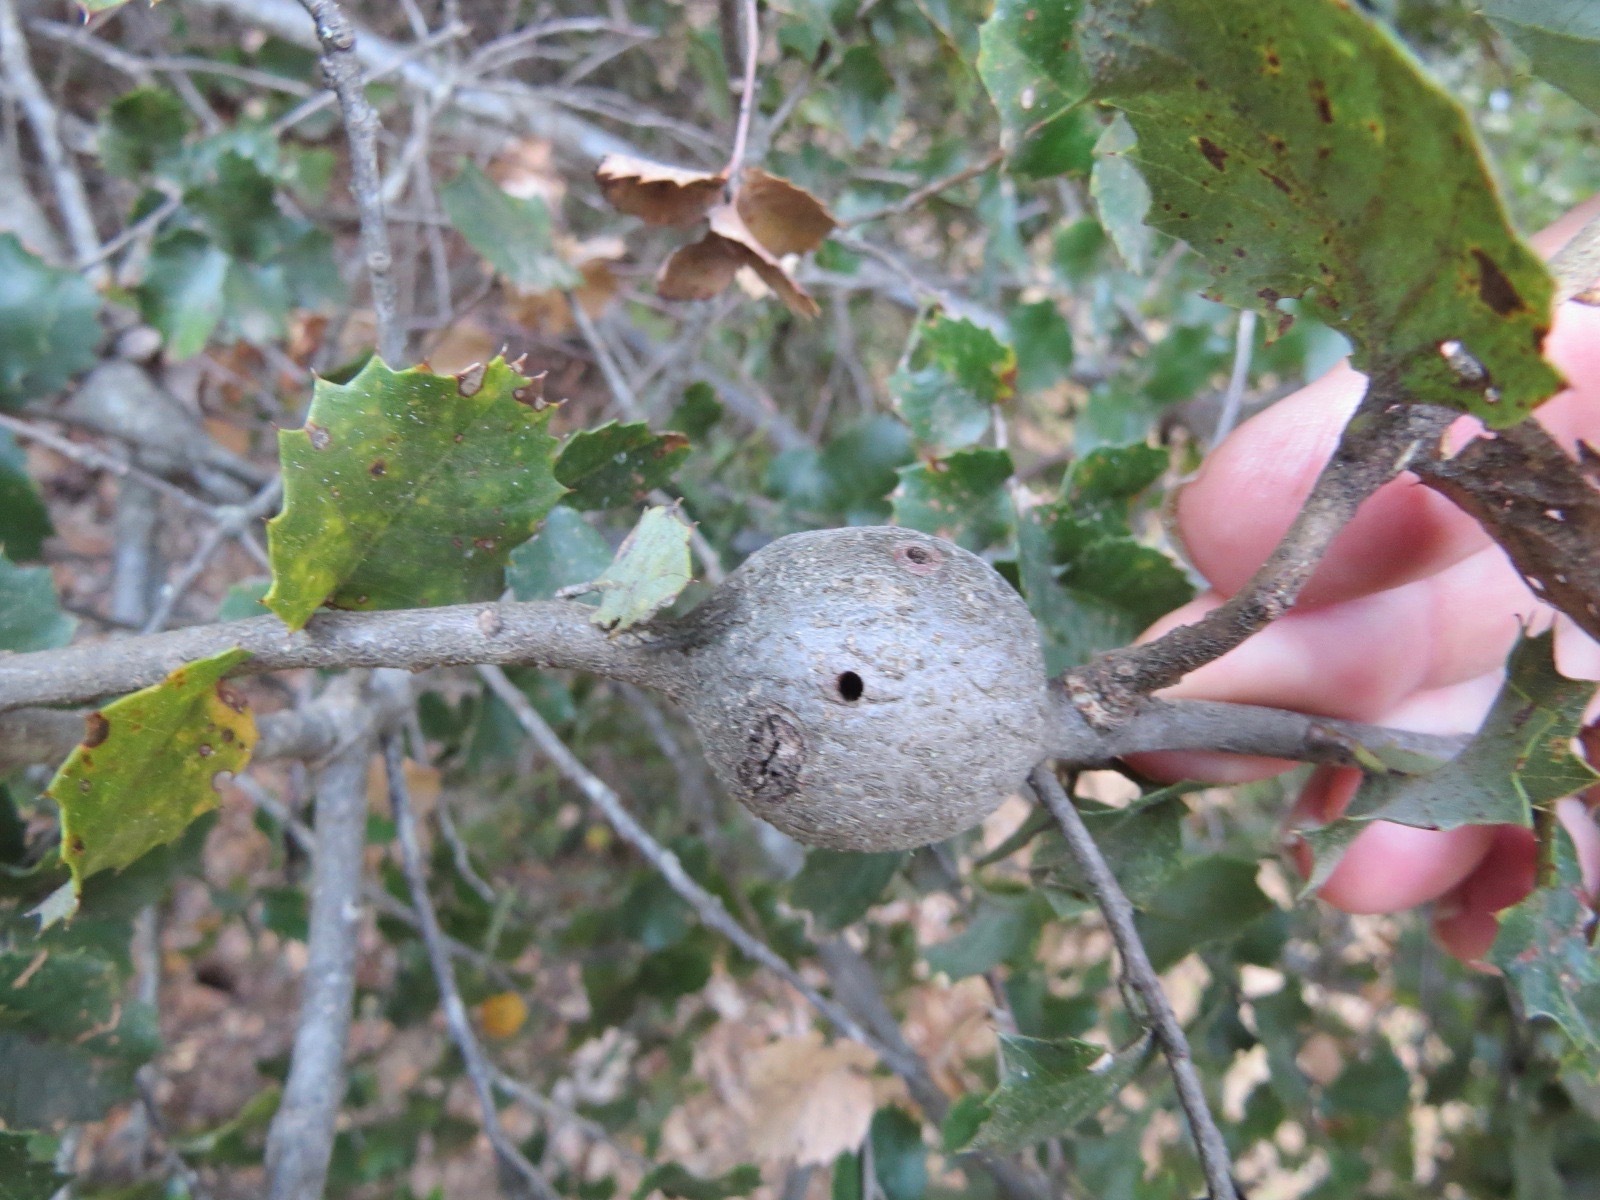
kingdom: Animalia
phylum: Arthropoda
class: Insecta
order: Hymenoptera
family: Cynipidae
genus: Callirhytis
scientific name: Callirhytis
